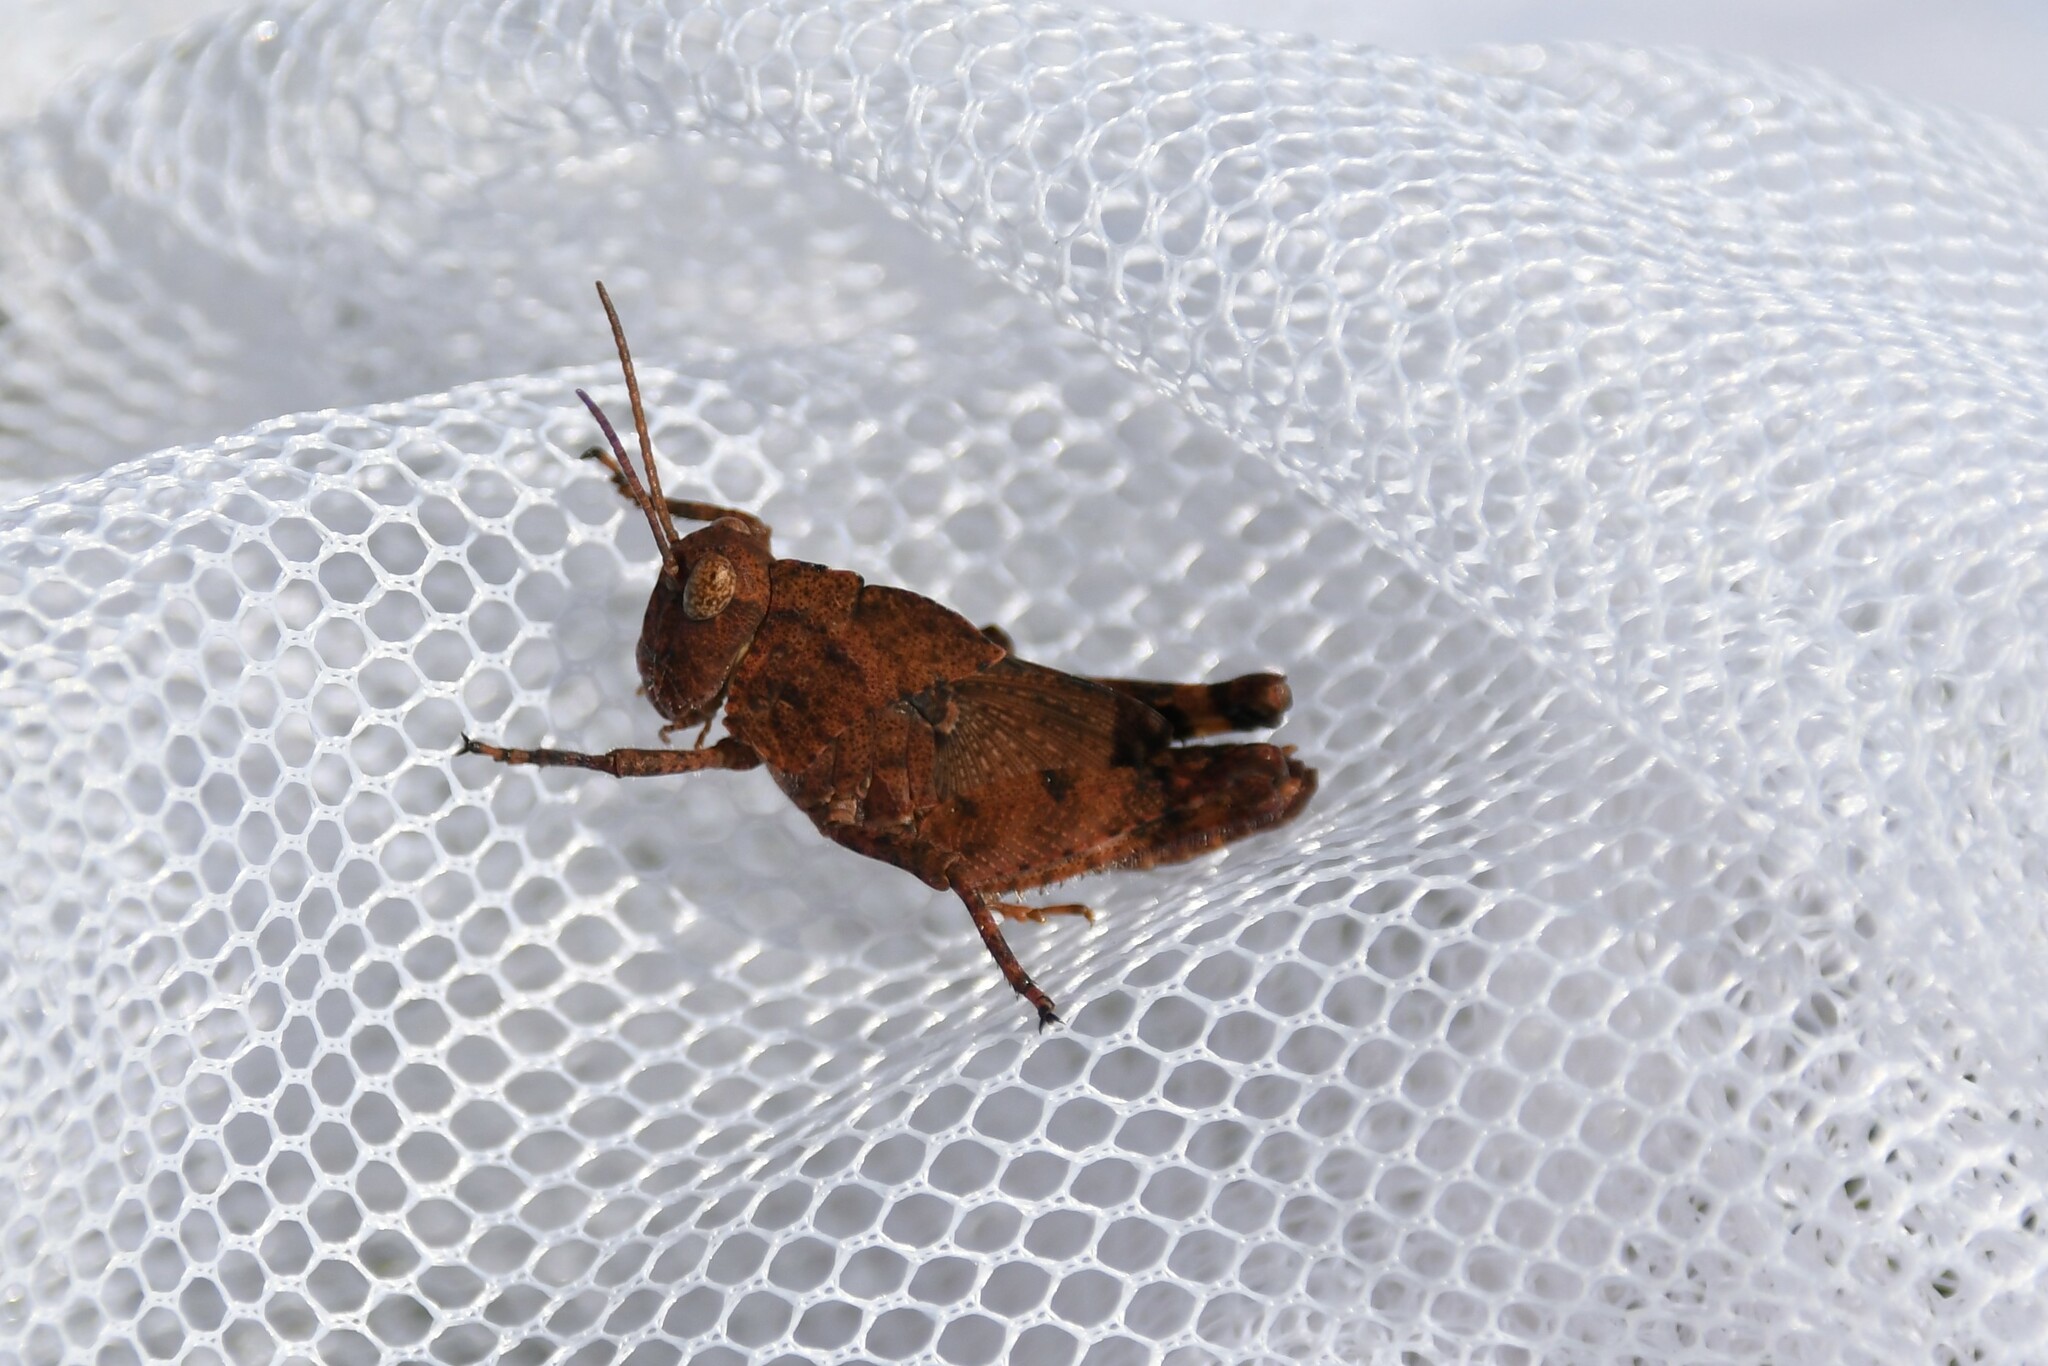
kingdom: Animalia
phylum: Arthropoda
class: Insecta
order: Orthoptera
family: Acrididae
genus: Dissosteira
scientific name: Dissosteira carolina
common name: Carolina grasshopper
